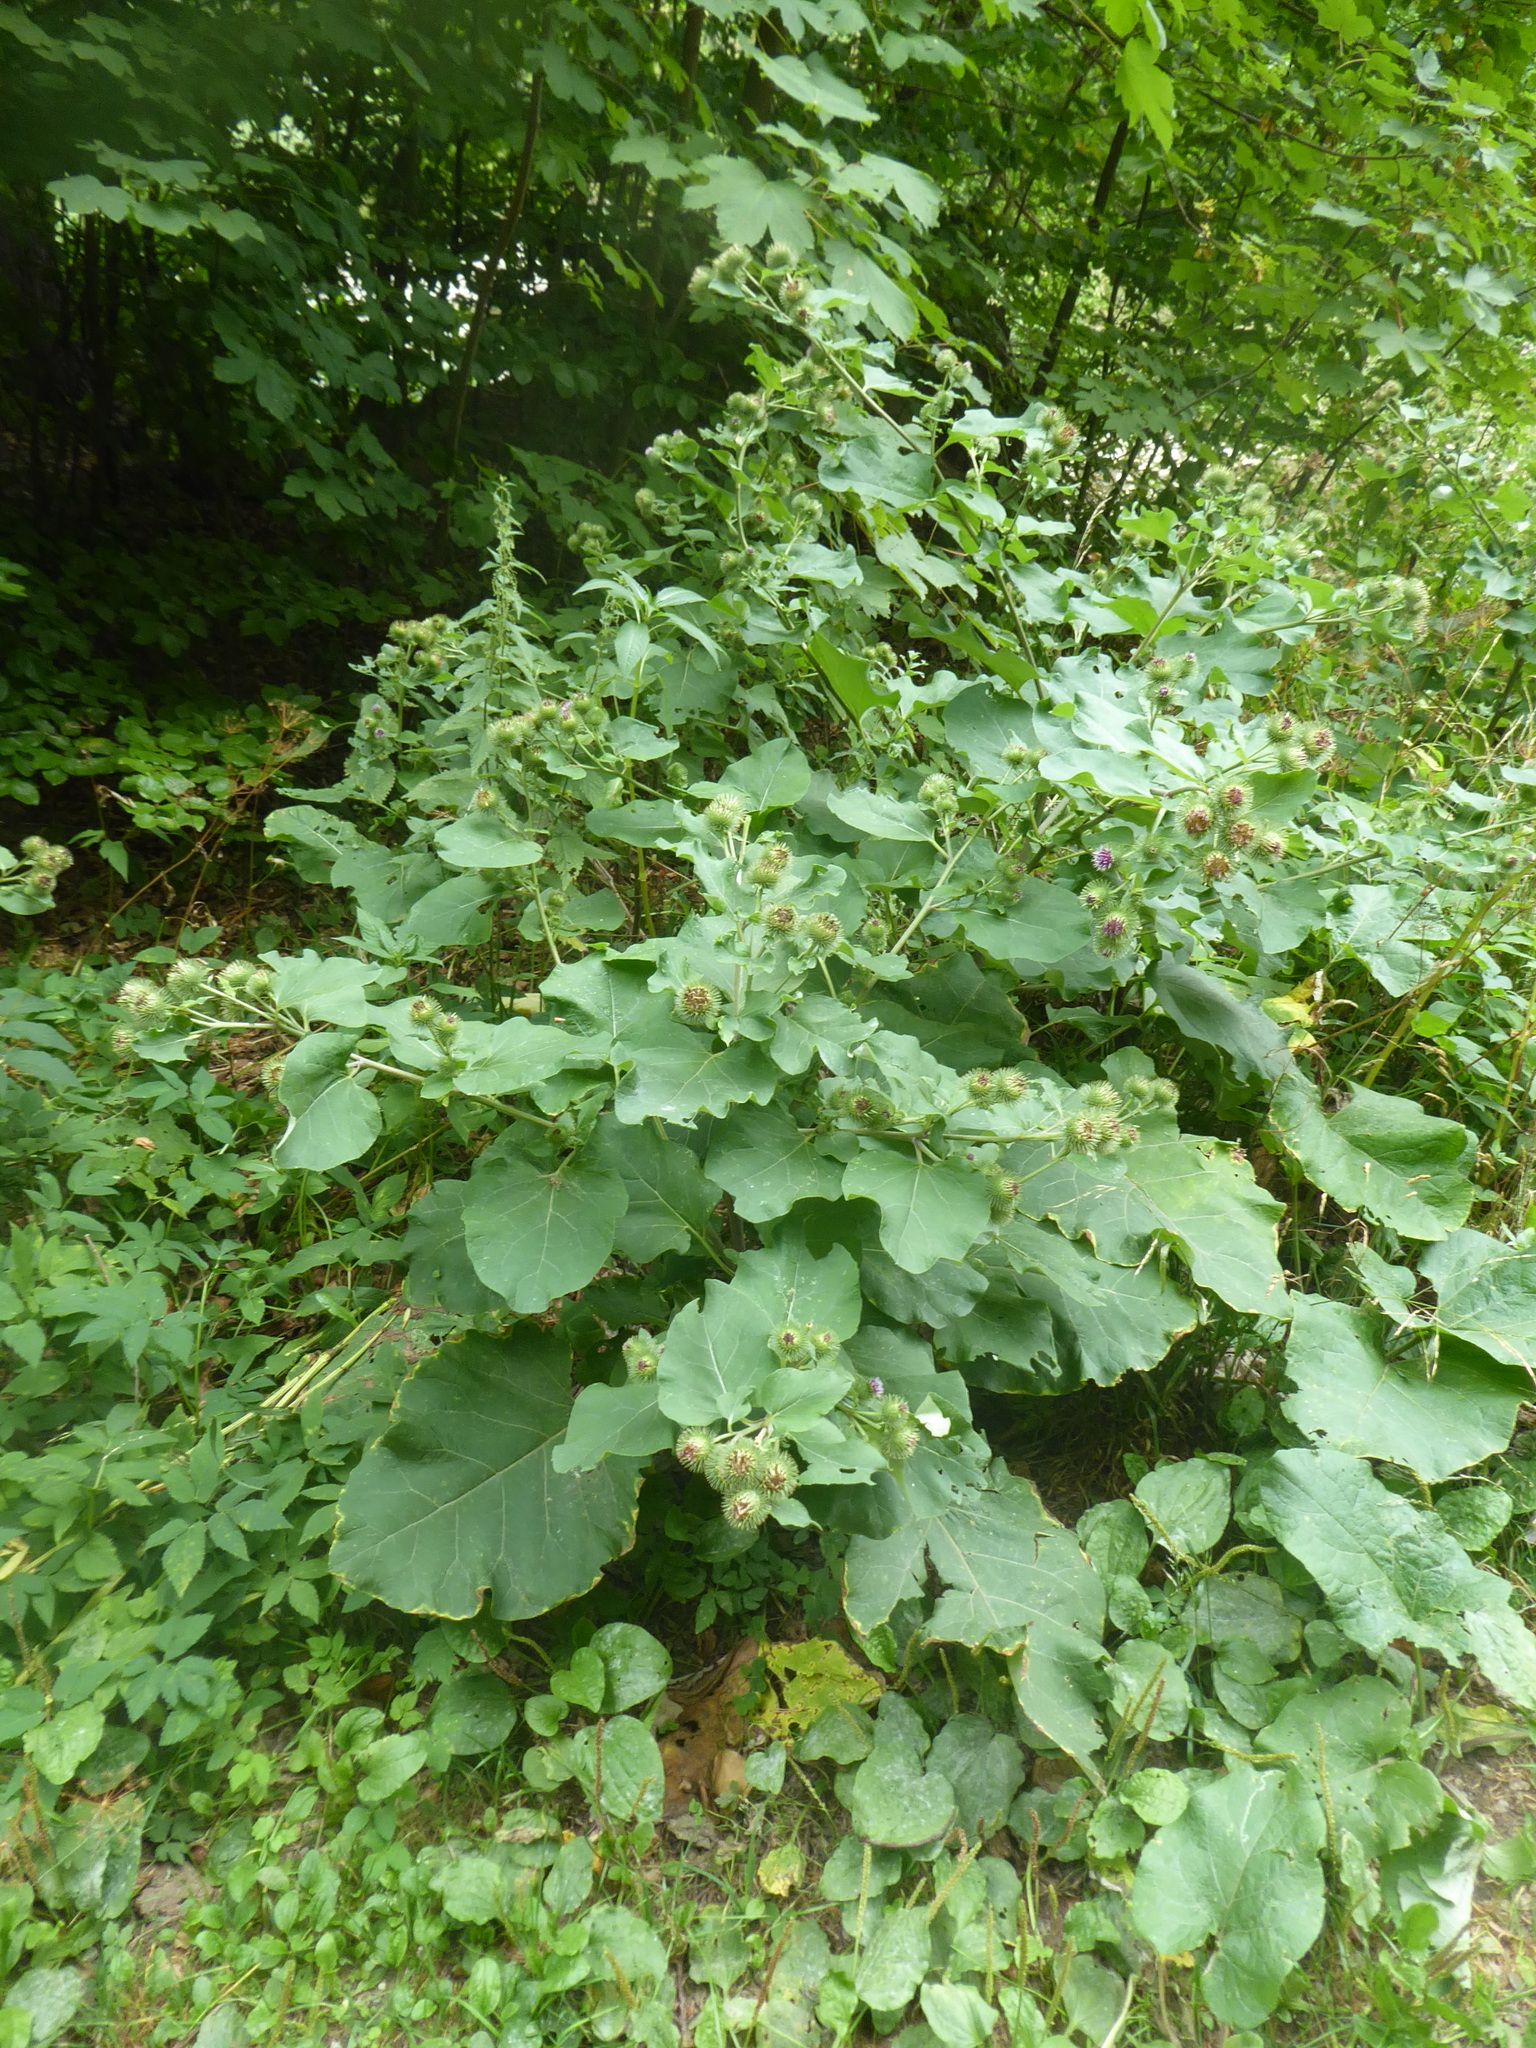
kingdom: Plantae
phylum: Tracheophyta
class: Magnoliopsida
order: Asterales
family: Asteraceae
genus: Arctium
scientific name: Arctium lappa
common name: Greater burdock
